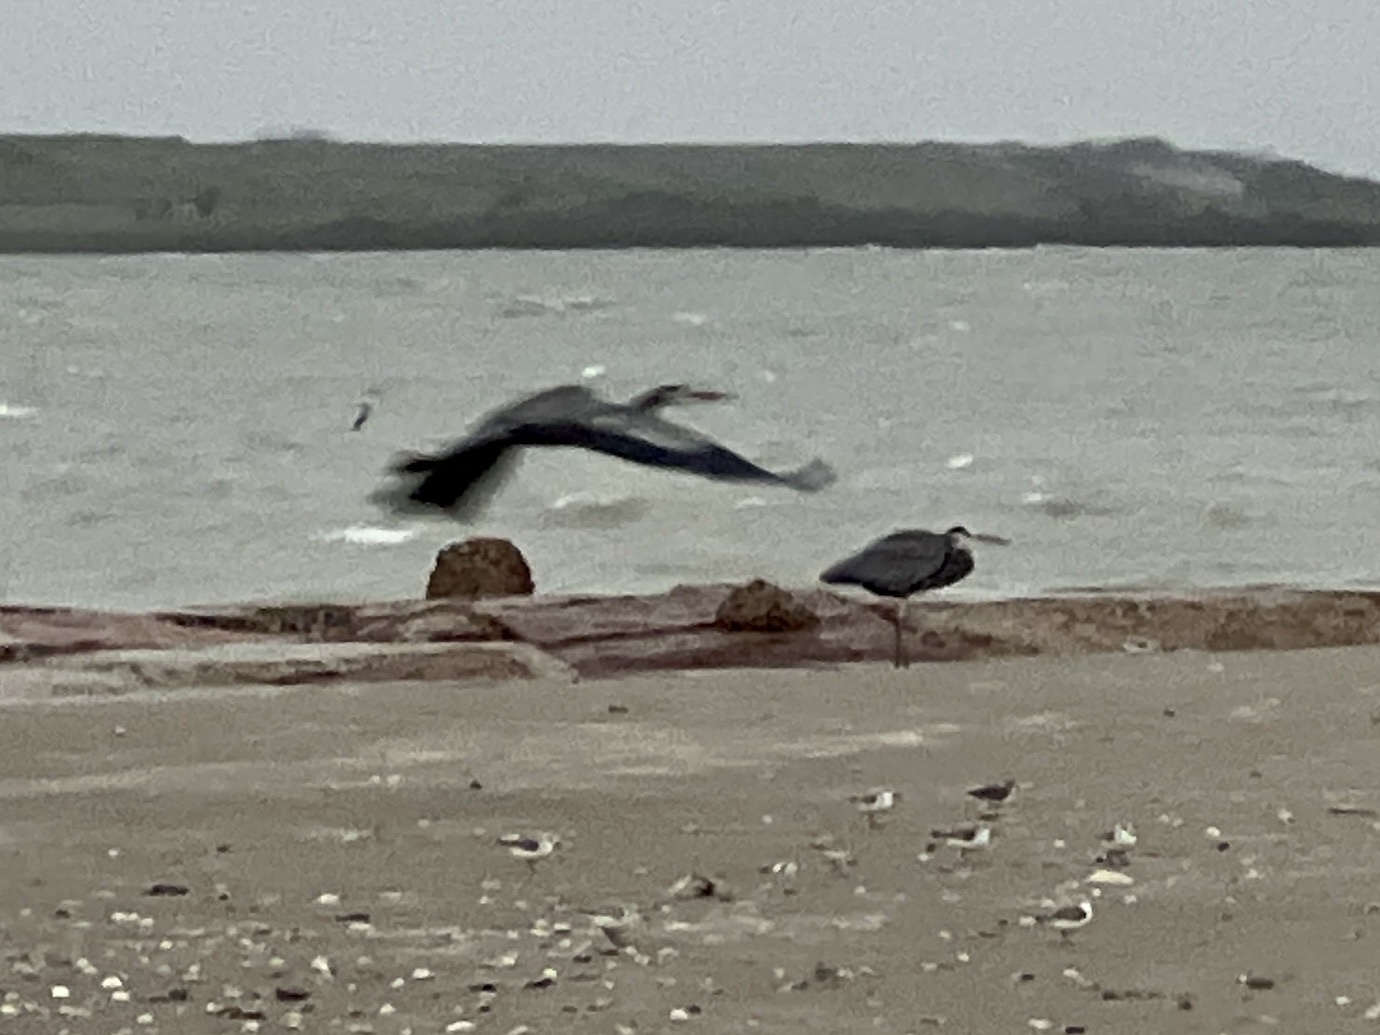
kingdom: Animalia
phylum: Chordata
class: Aves
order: Pelecaniformes
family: Ardeidae
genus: Ardea
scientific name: Ardea herodias
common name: Great blue heron
